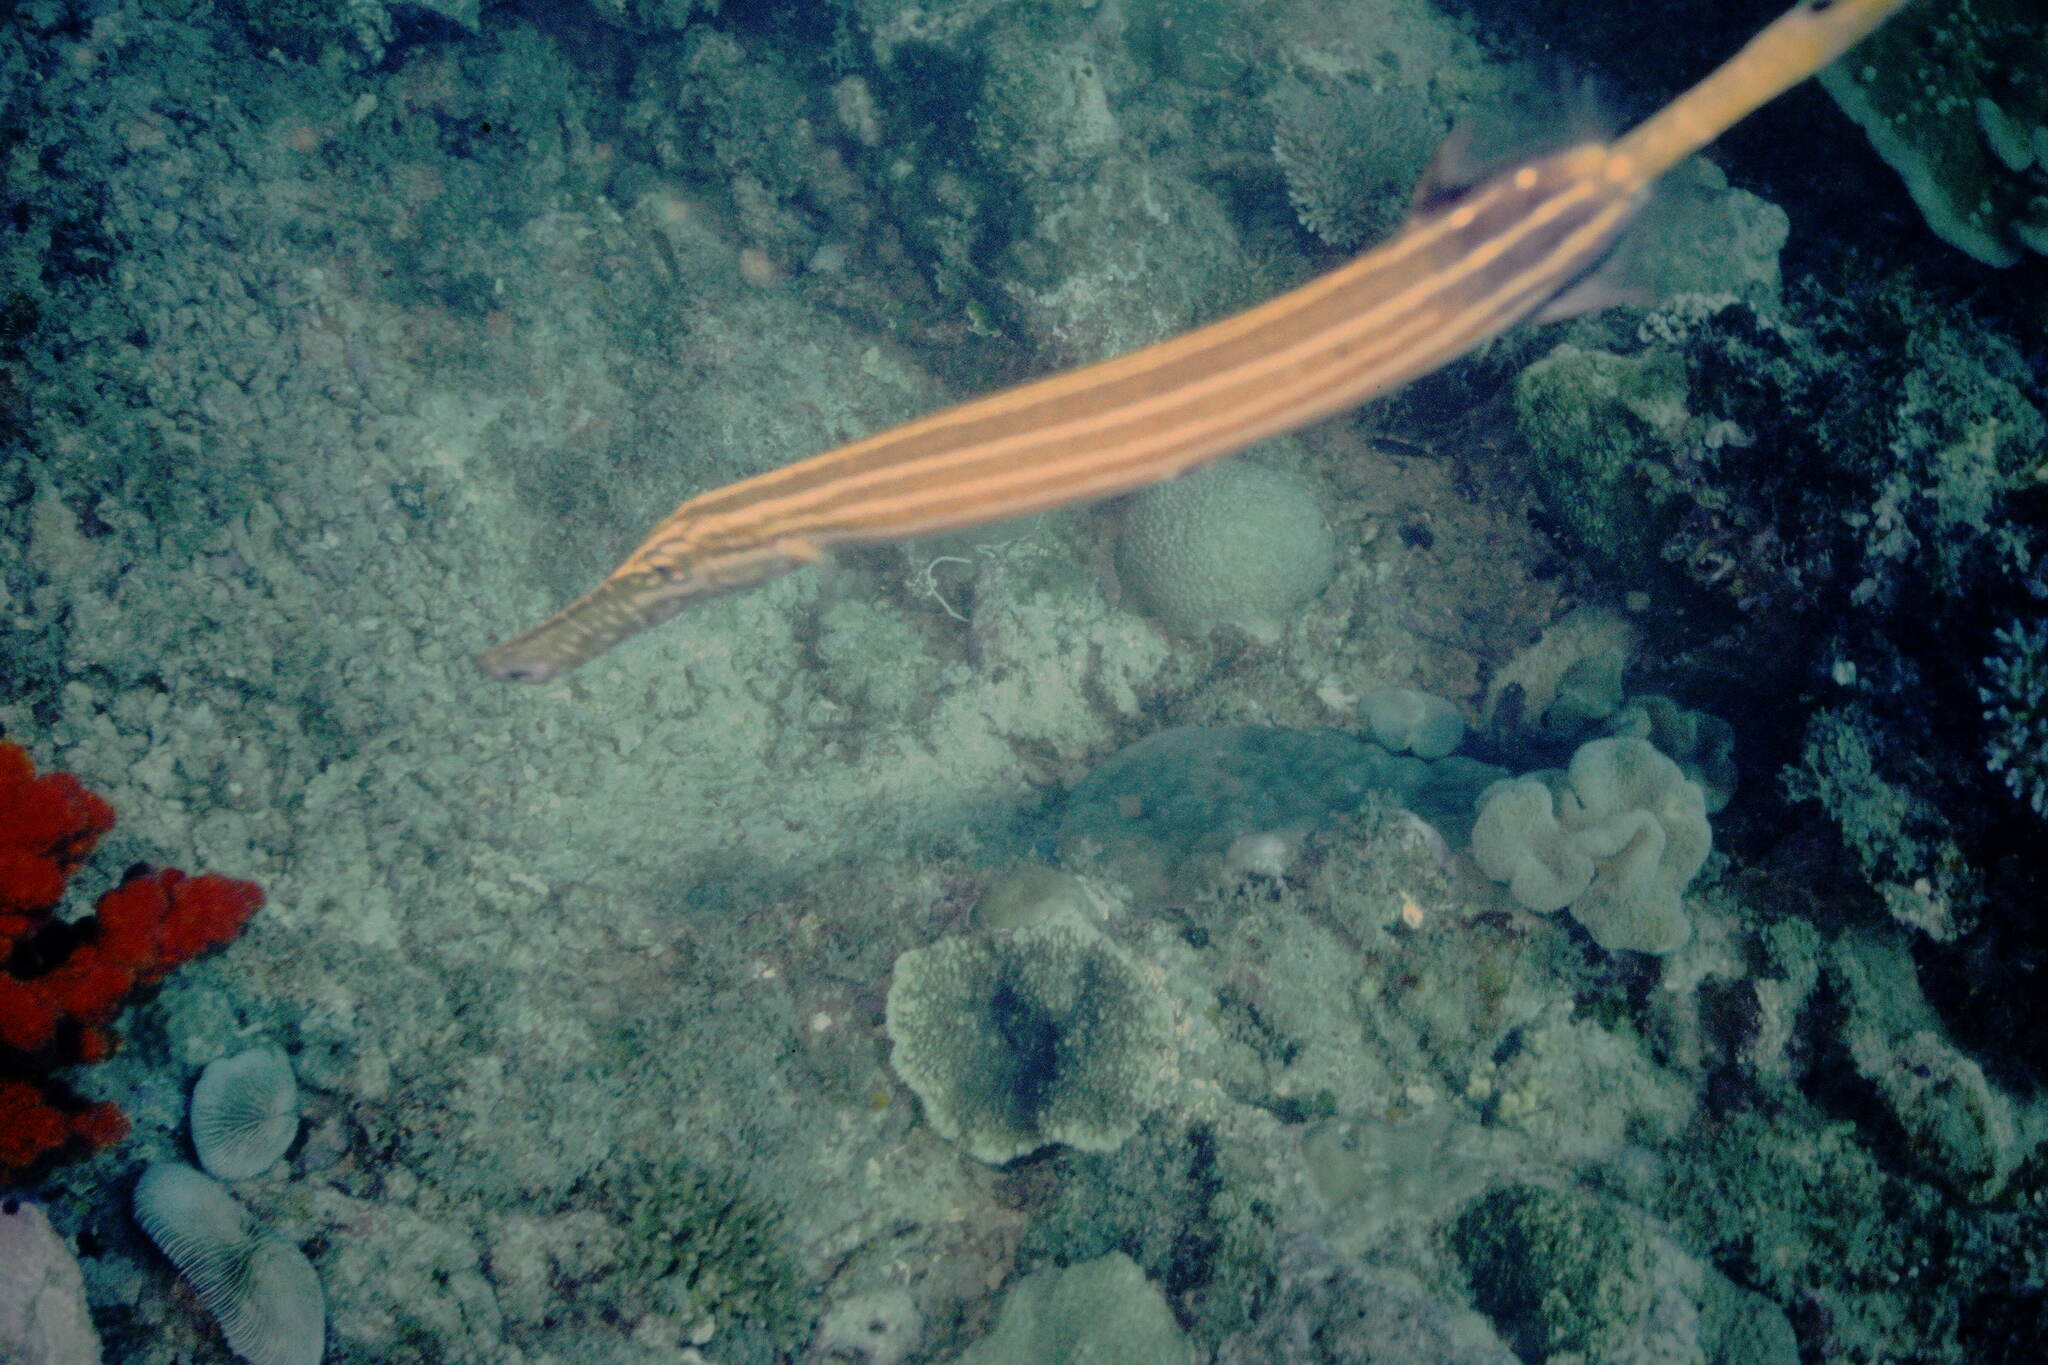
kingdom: Animalia
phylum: Chordata
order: Syngnathiformes
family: Aulostomidae
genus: Aulostomus
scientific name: Aulostomus chinensis
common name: Chinese trumpetfish
